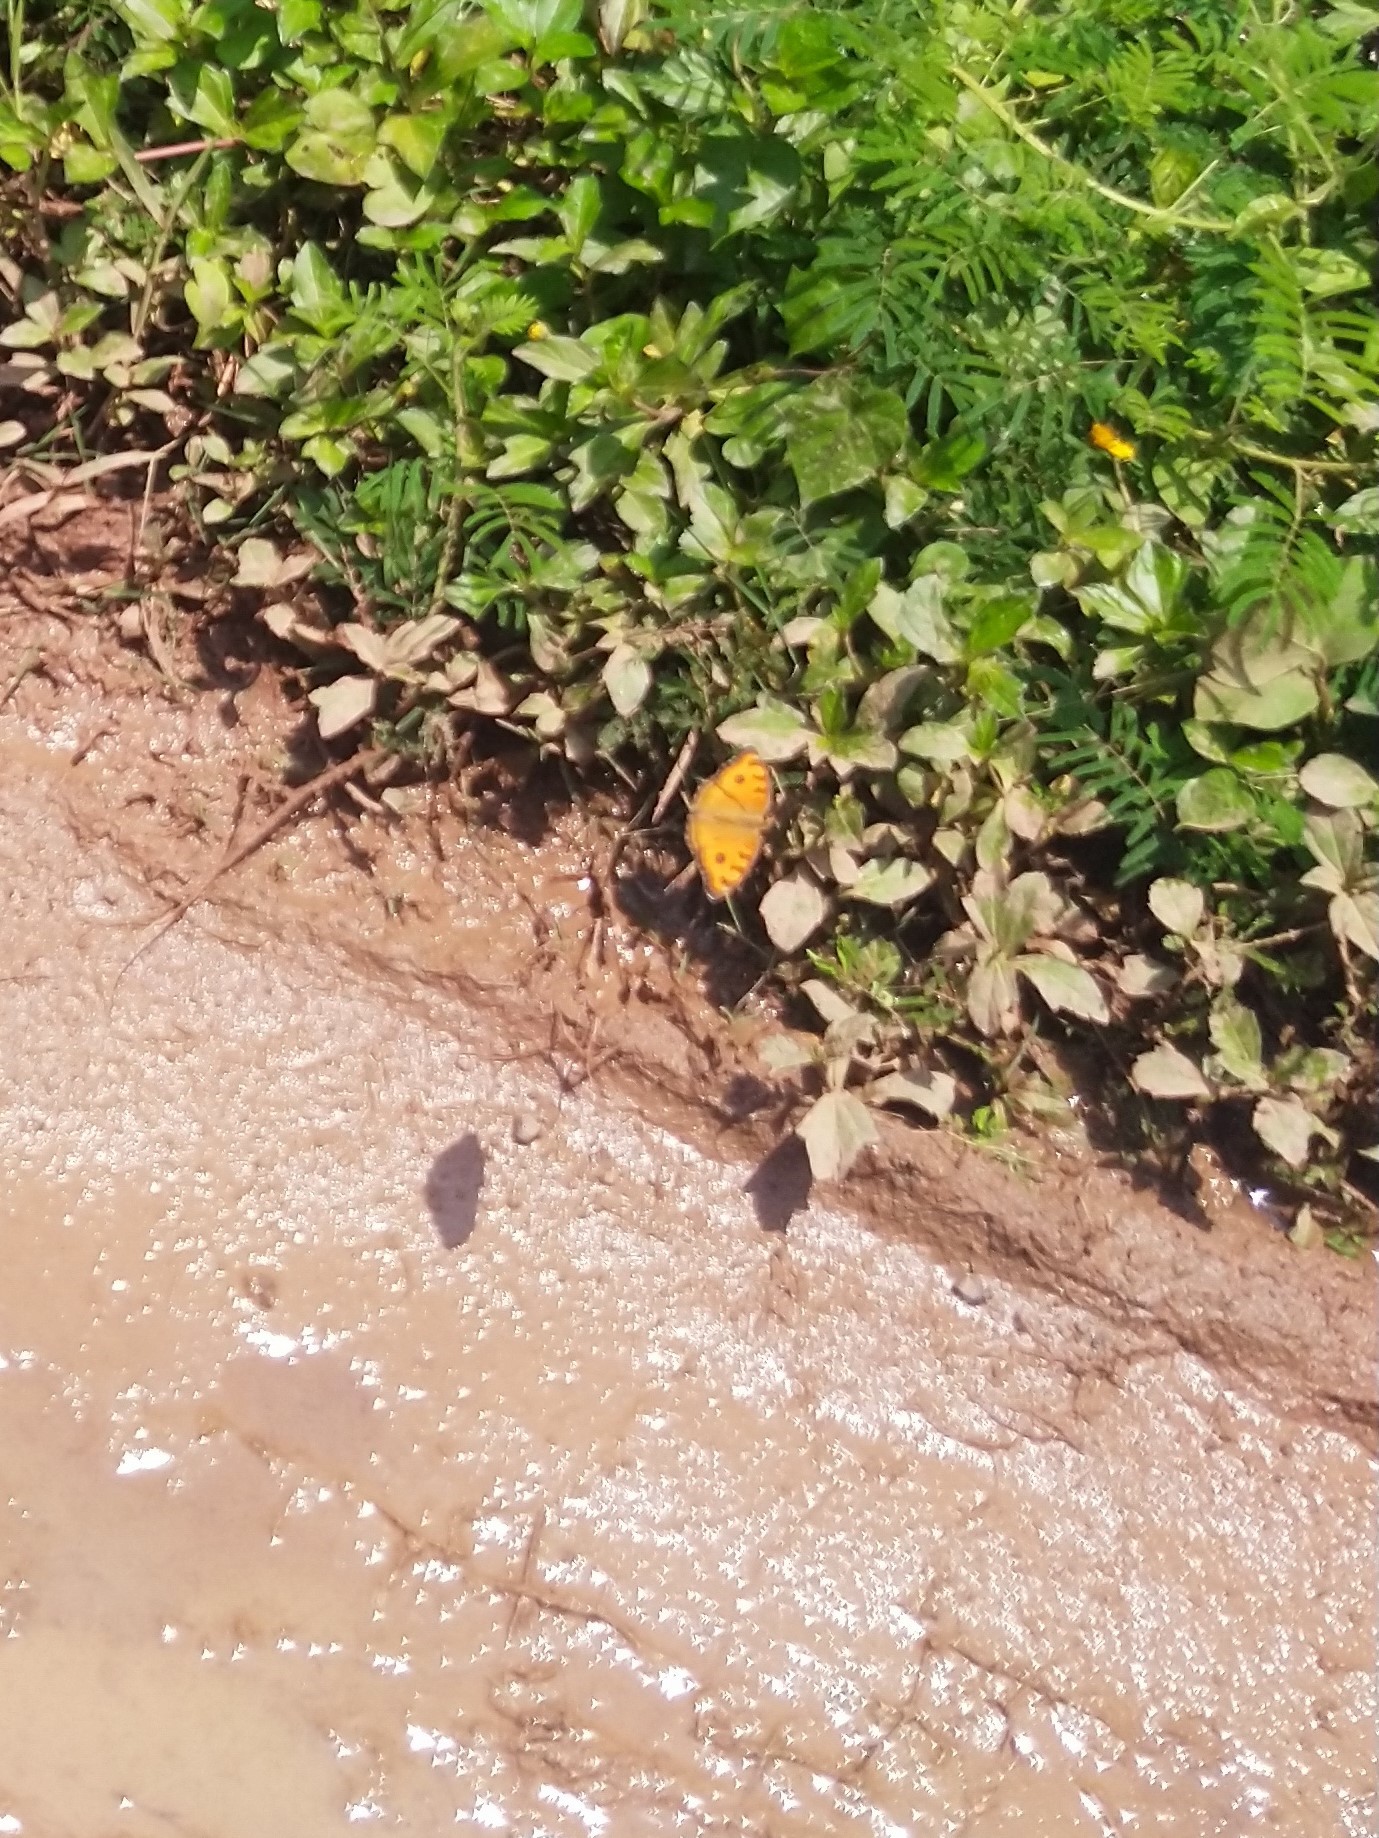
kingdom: Animalia
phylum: Arthropoda
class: Insecta
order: Lepidoptera
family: Nymphalidae
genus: Junonia
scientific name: Junonia almana
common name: Peacock pansy
